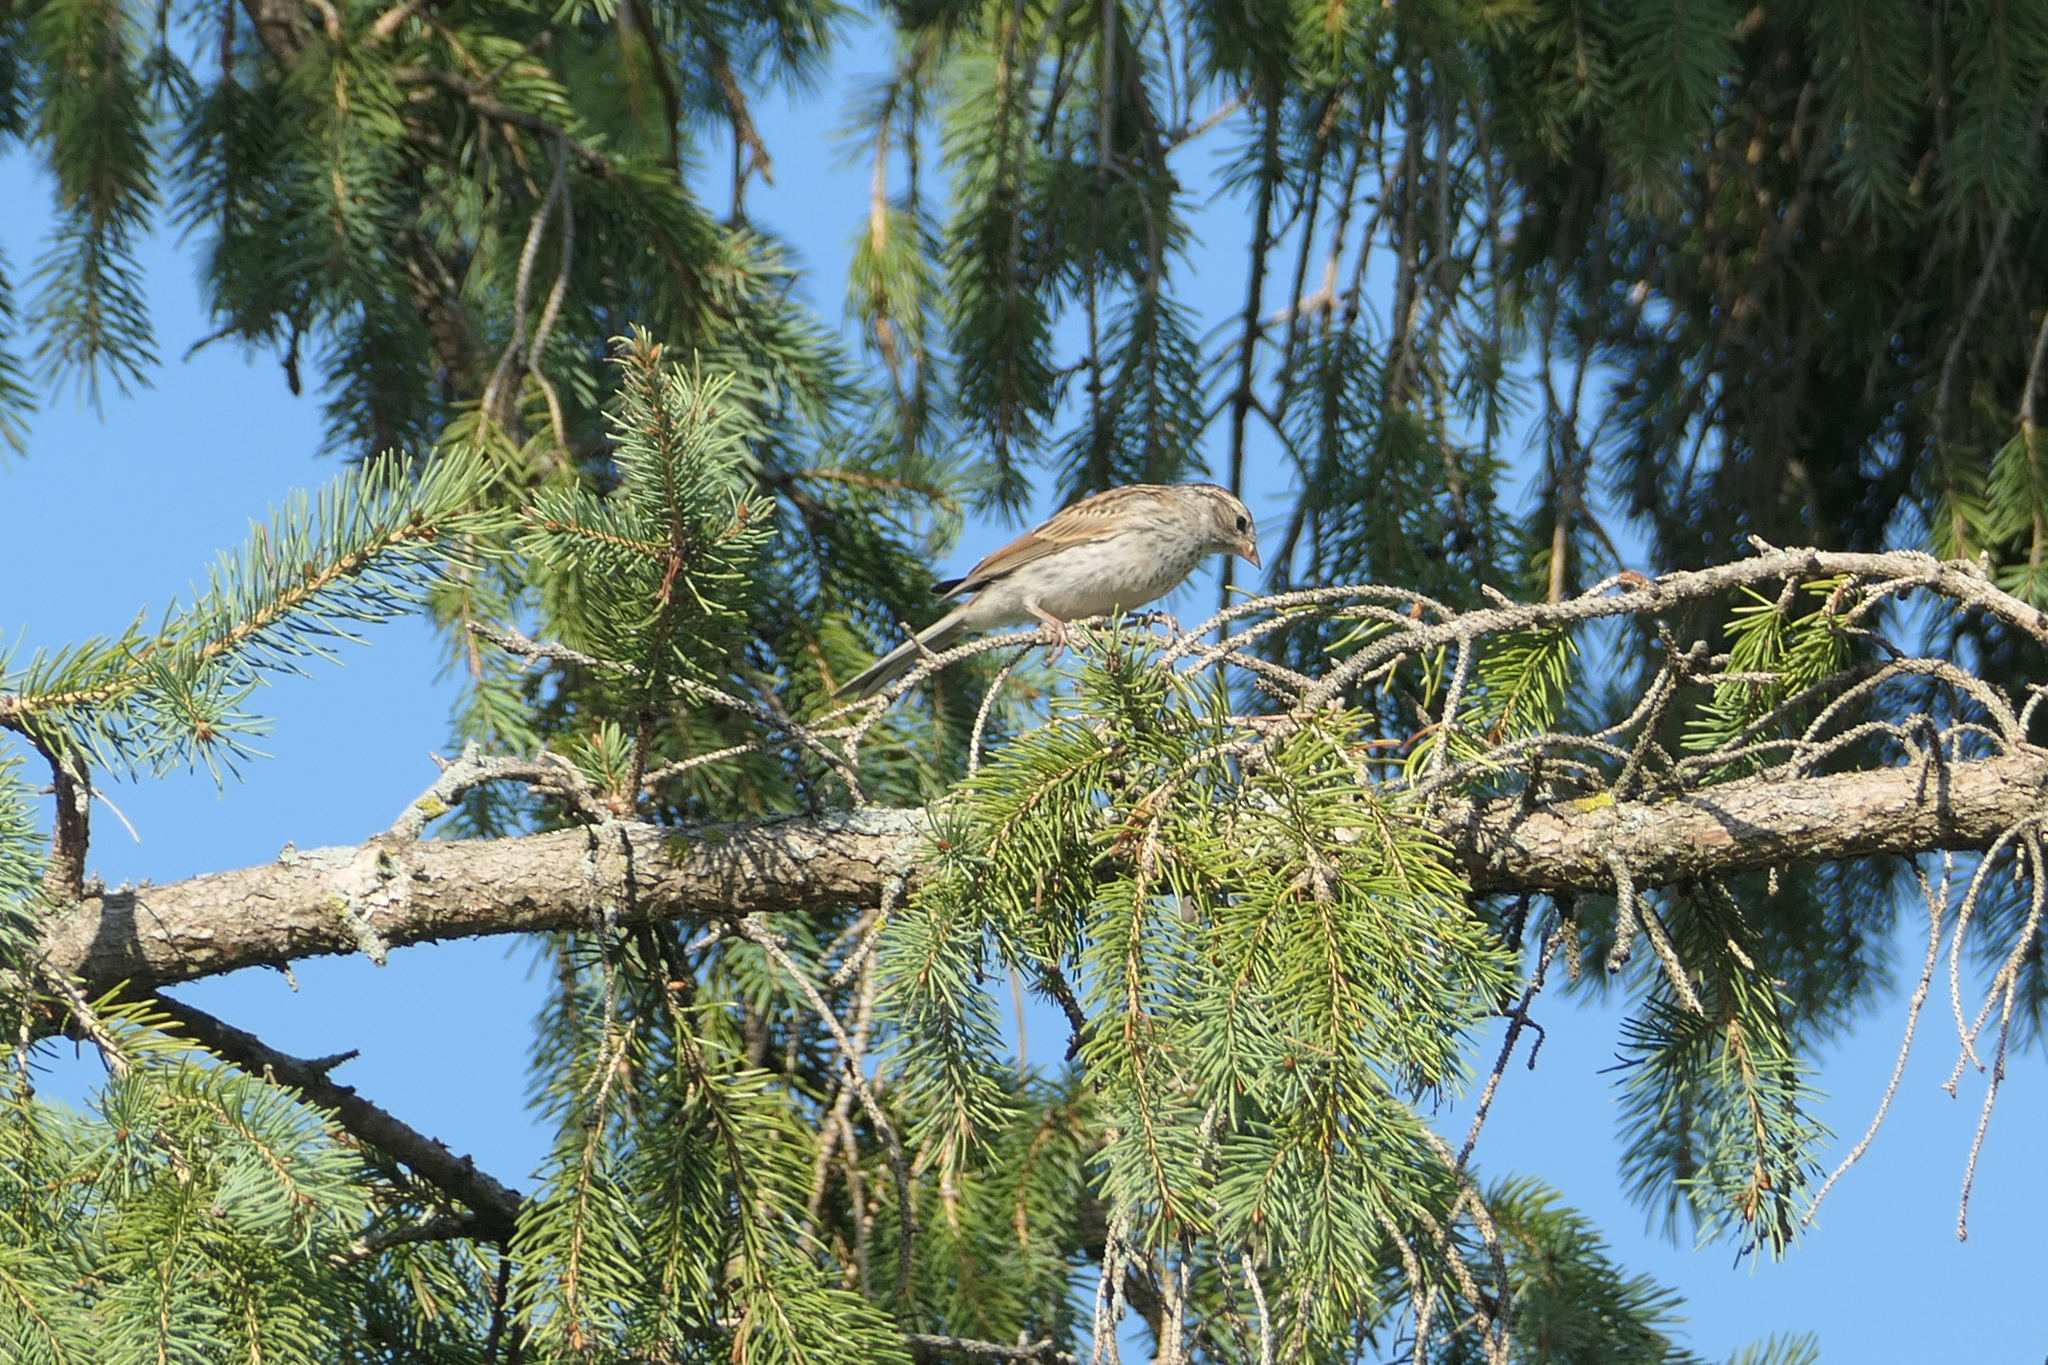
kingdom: Animalia
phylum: Chordata
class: Aves
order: Passeriformes
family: Passerellidae
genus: Spizella
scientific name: Spizella passerina
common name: Chipping sparrow
